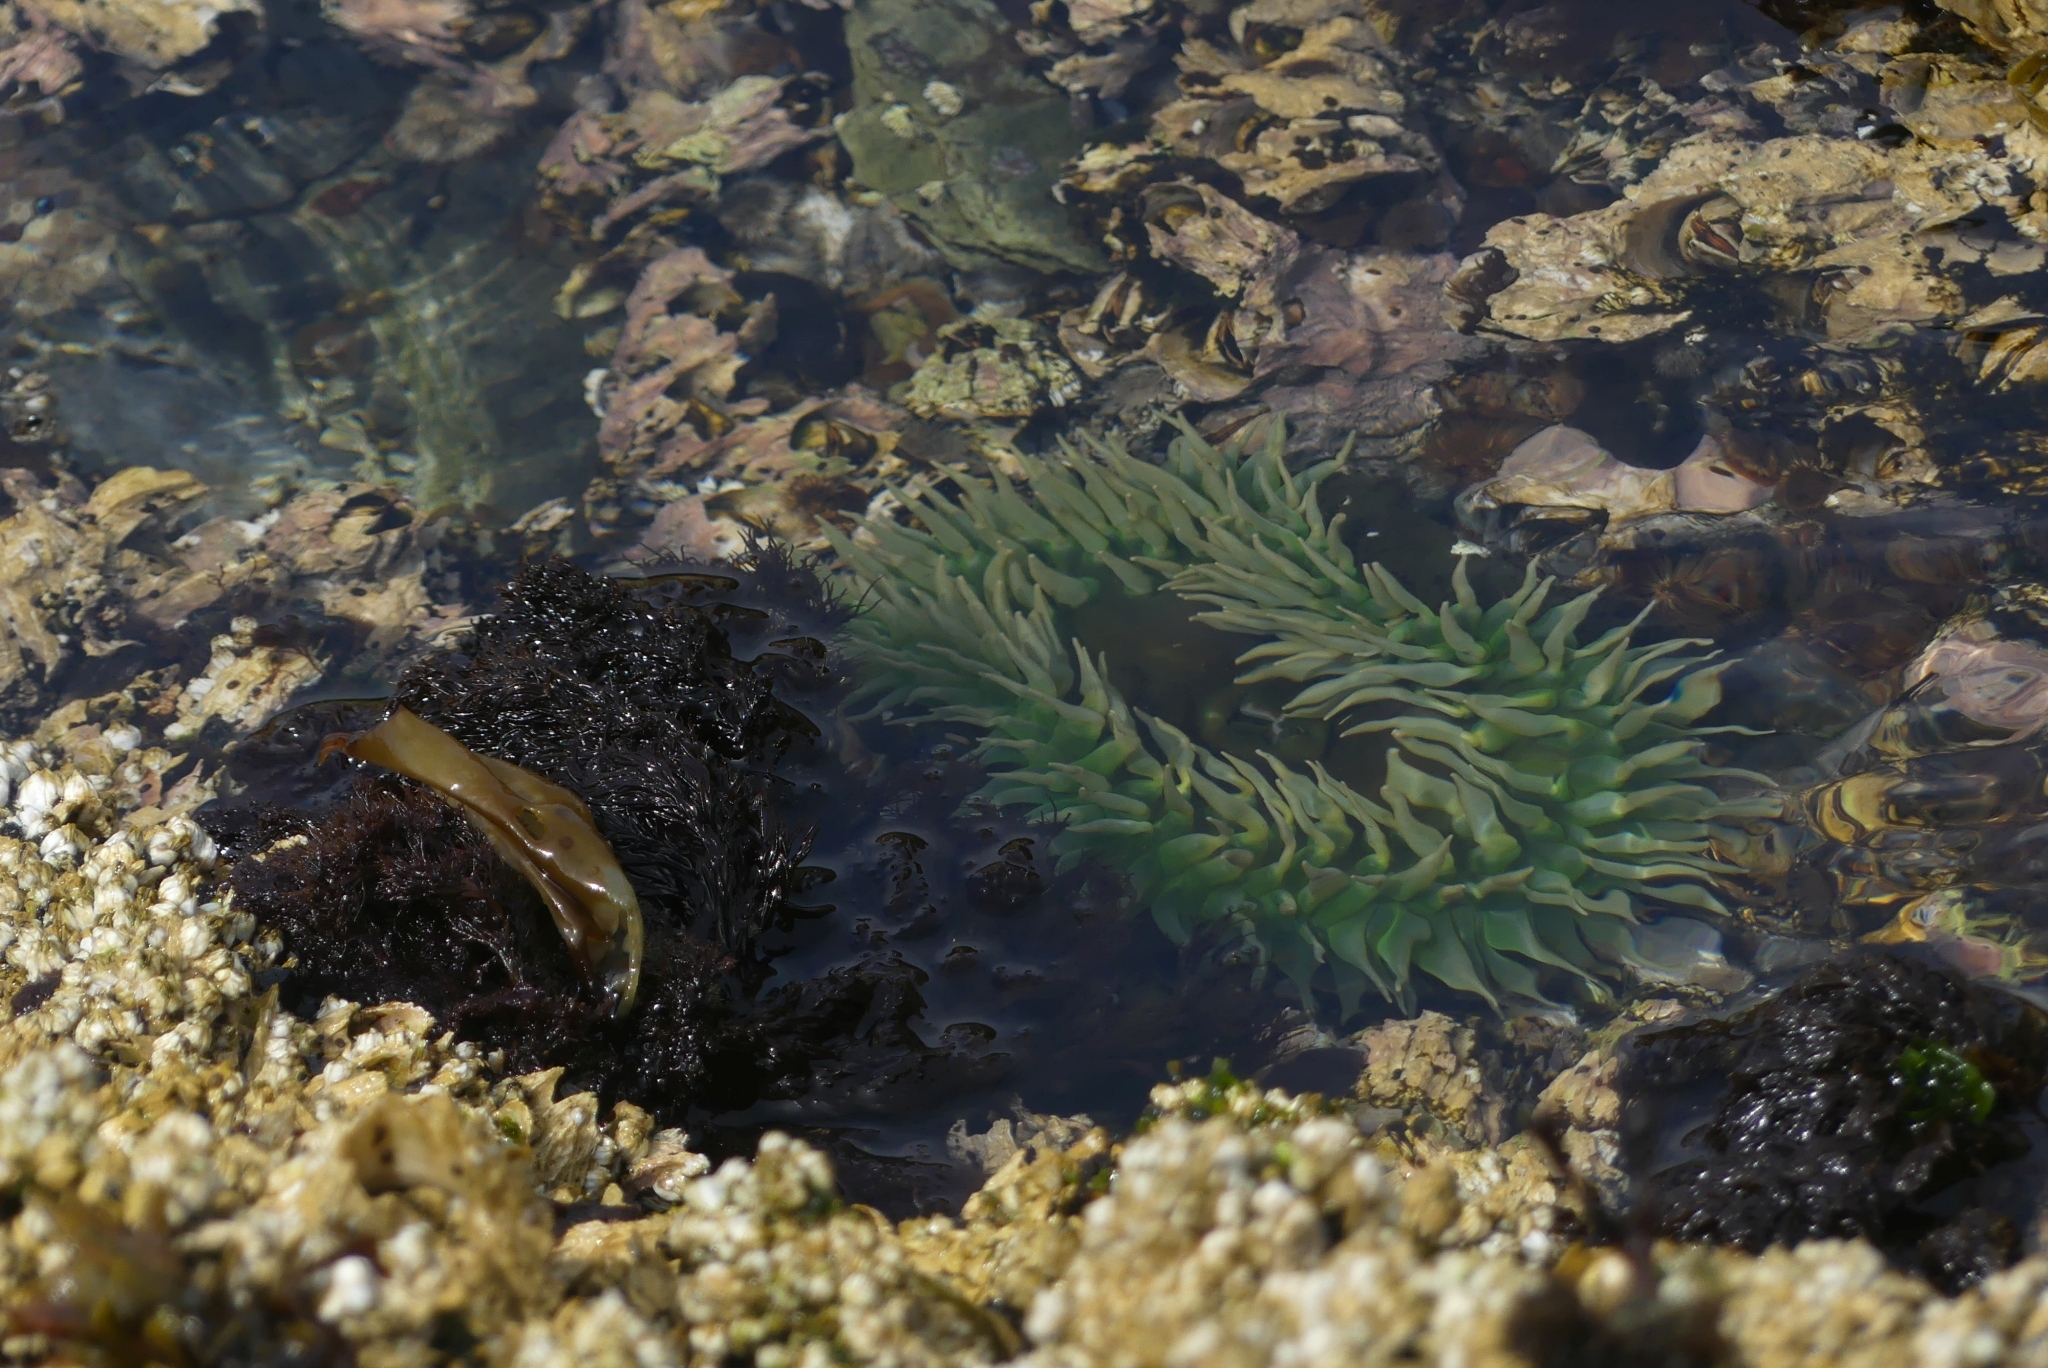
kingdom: Animalia
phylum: Cnidaria
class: Anthozoa
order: Actiniaria
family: Actiniidae
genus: Anthopleura
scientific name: Anthopleura xanthogrammica
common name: Giant green anemone
